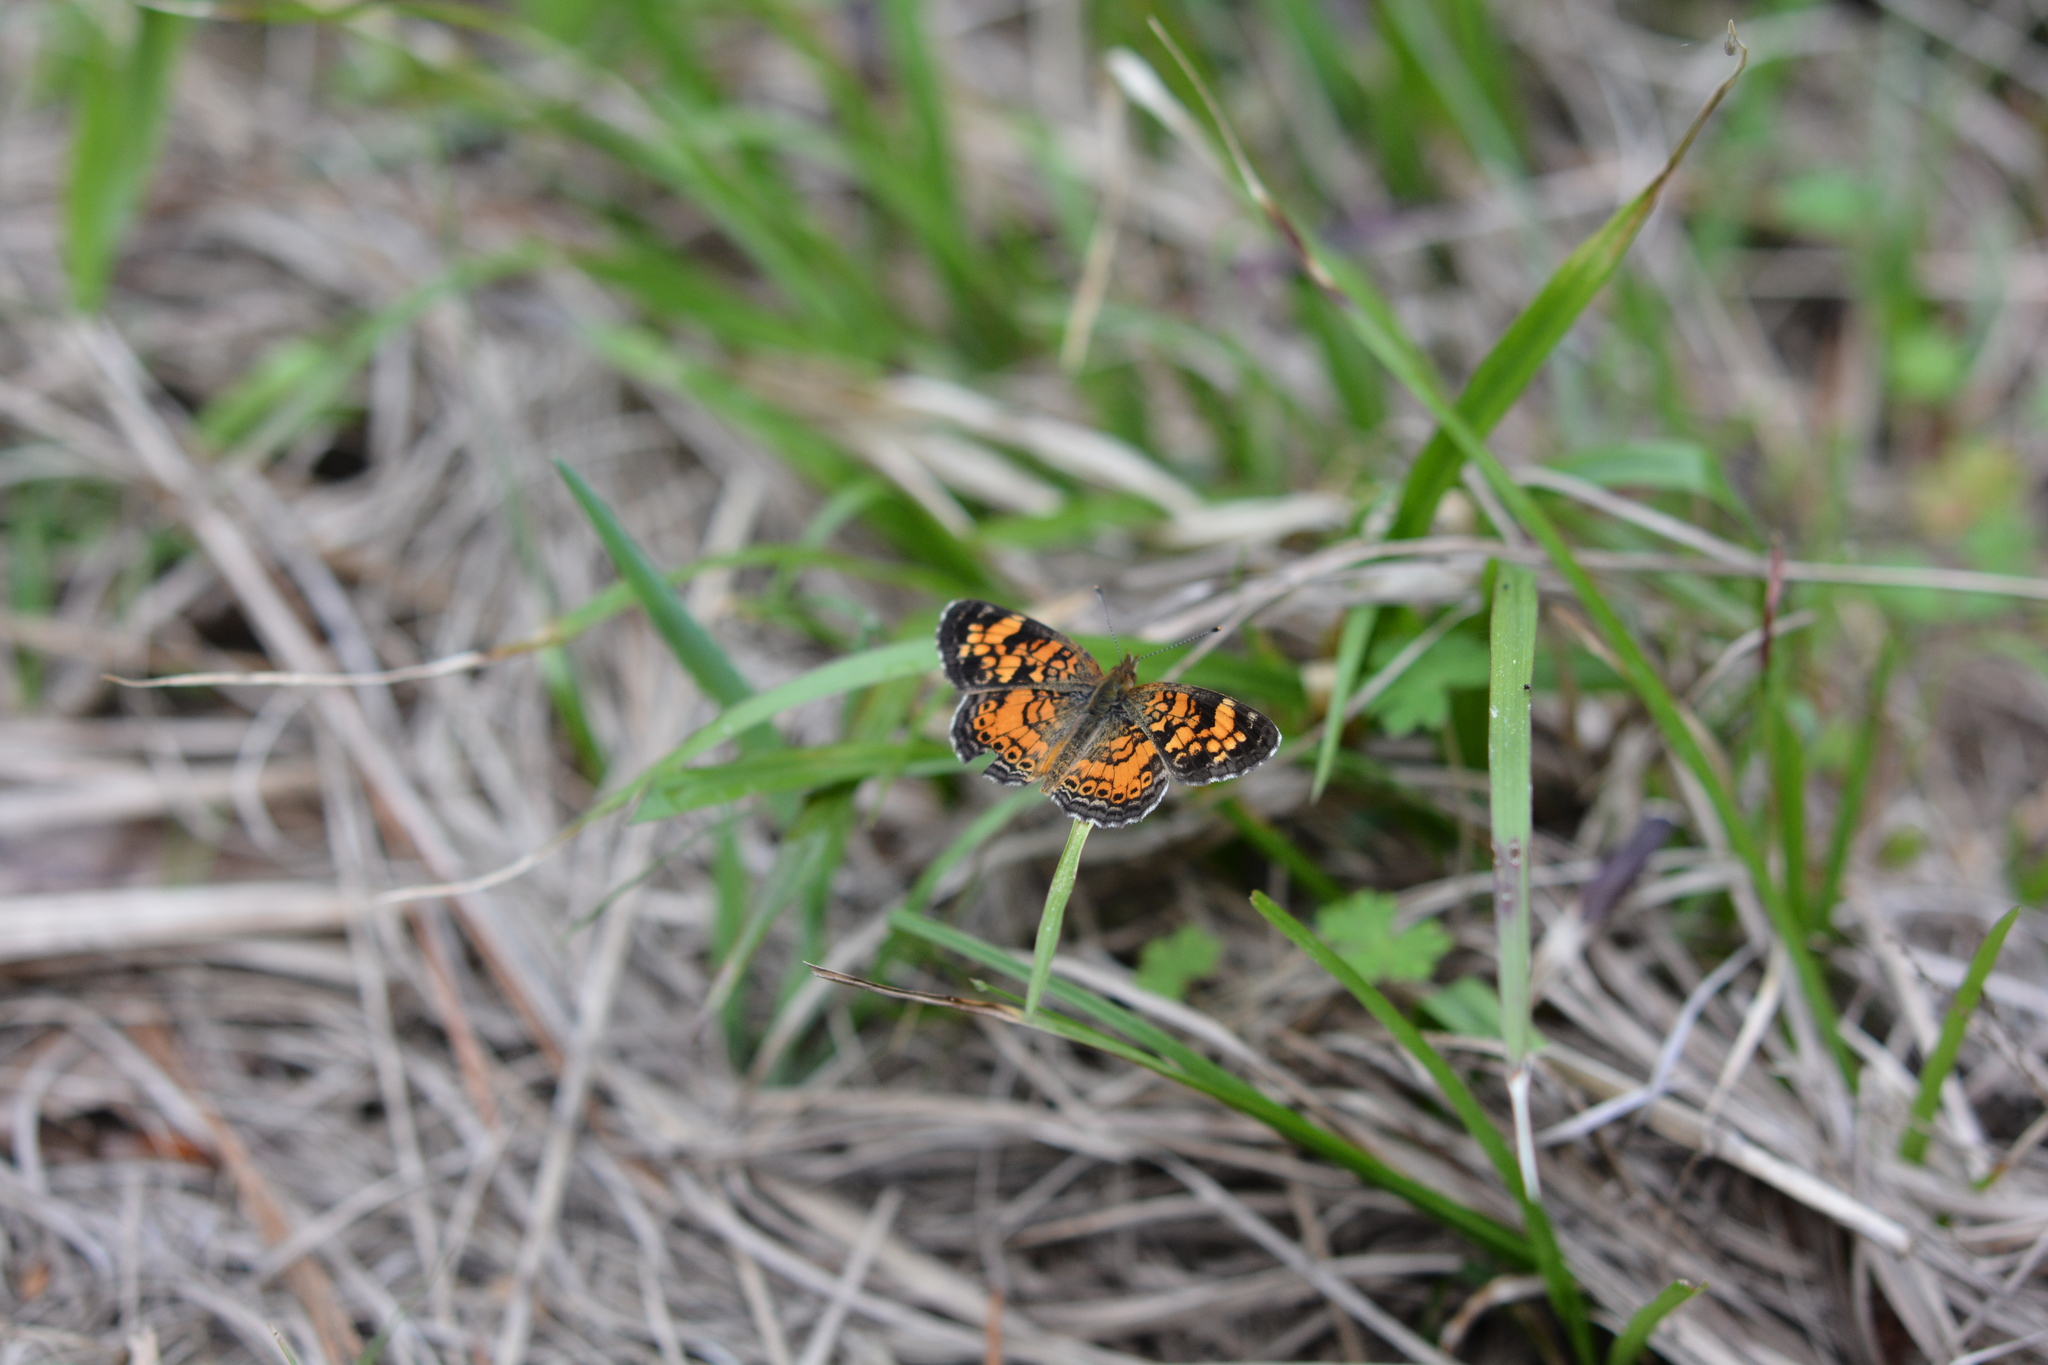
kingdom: Animalia
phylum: Arthropoda
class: Insecta
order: Lepidoptera
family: Nymphalidae
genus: Phyciodes
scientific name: Phyciodes tharos
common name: Pearl crescent
